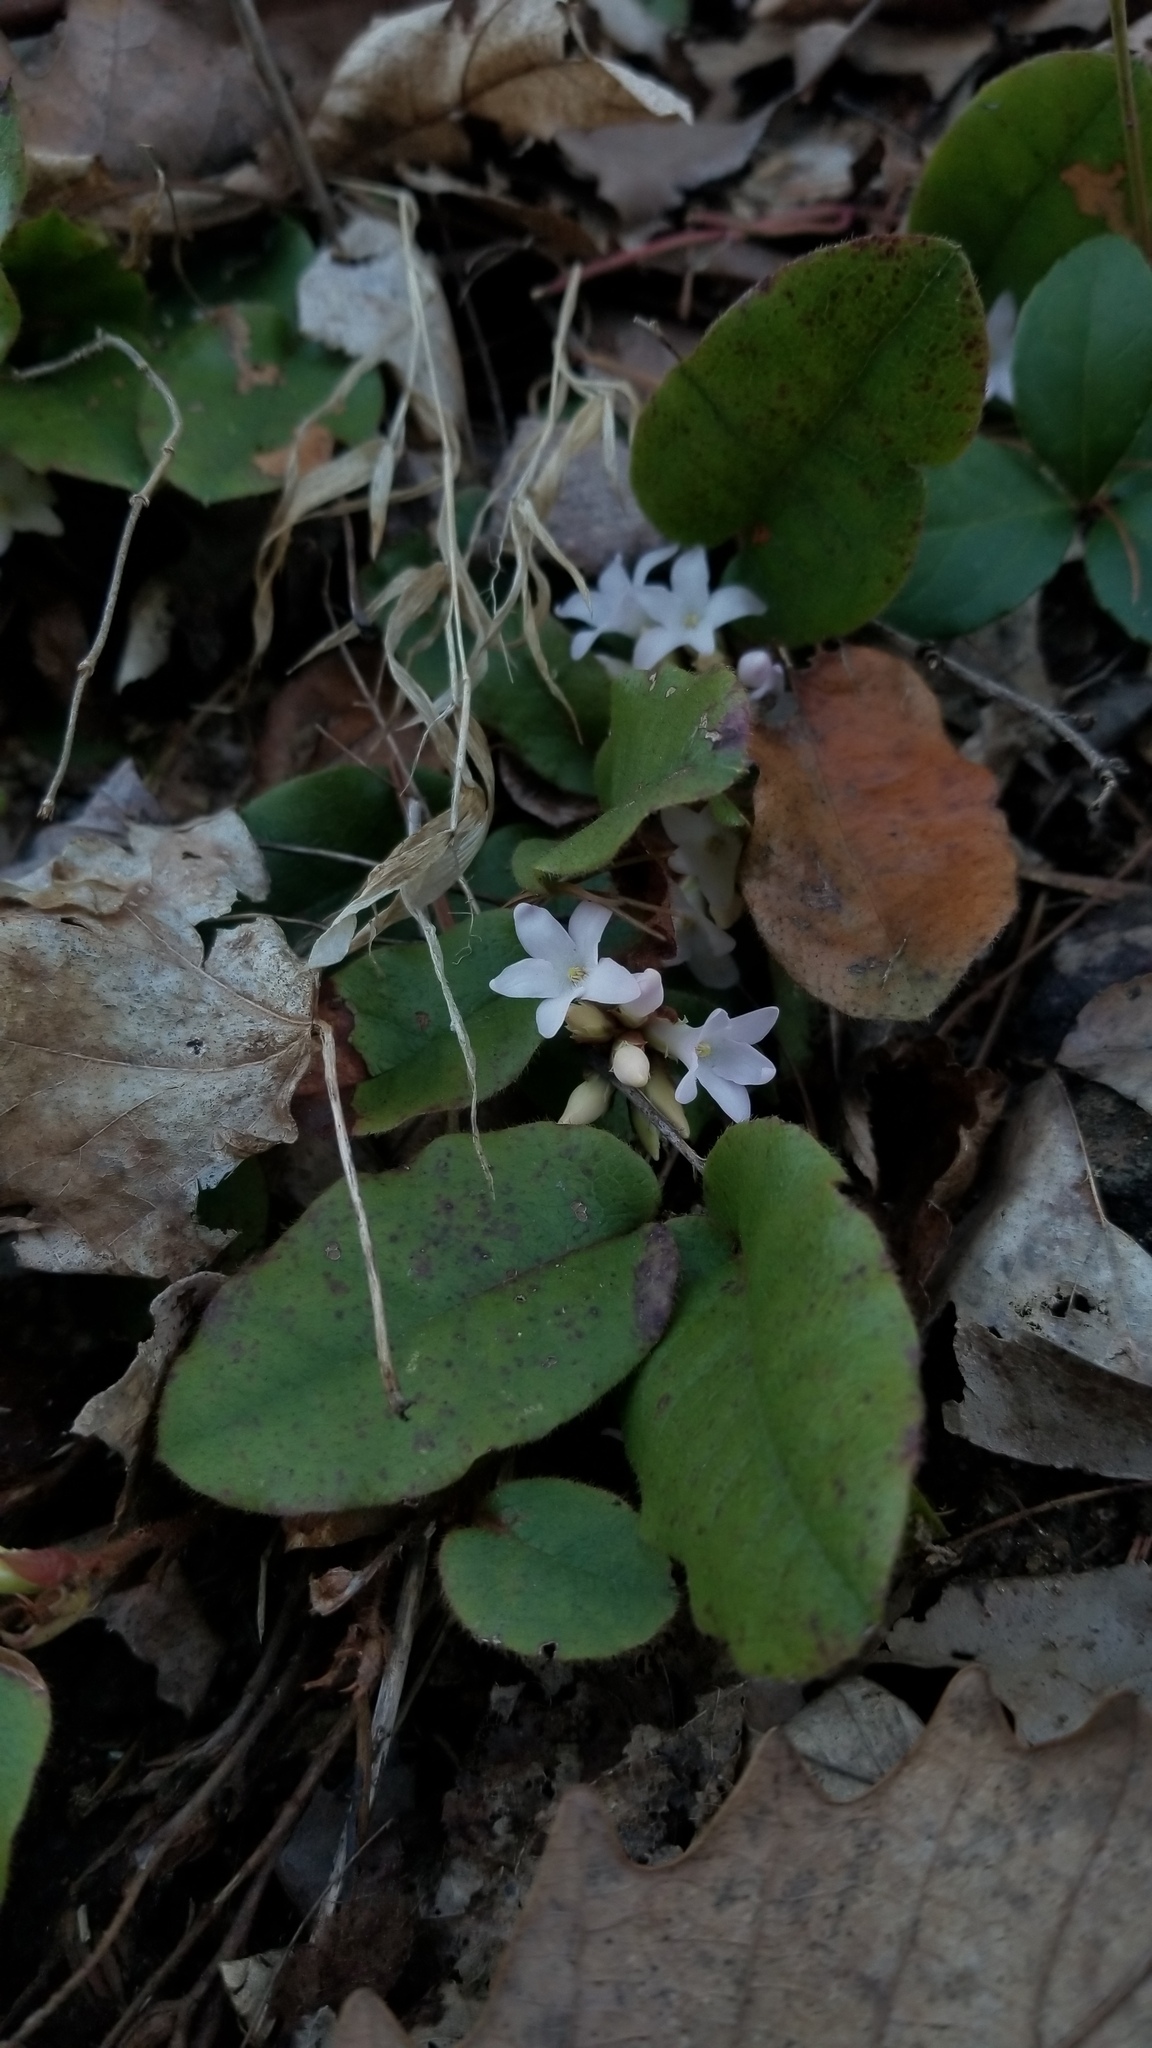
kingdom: Plantae
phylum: Tracheophyta
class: Magnoliopsida
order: Ericales
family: Ericaceae
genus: Epigaea
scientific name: Epigaea repens
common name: Gravelroot
